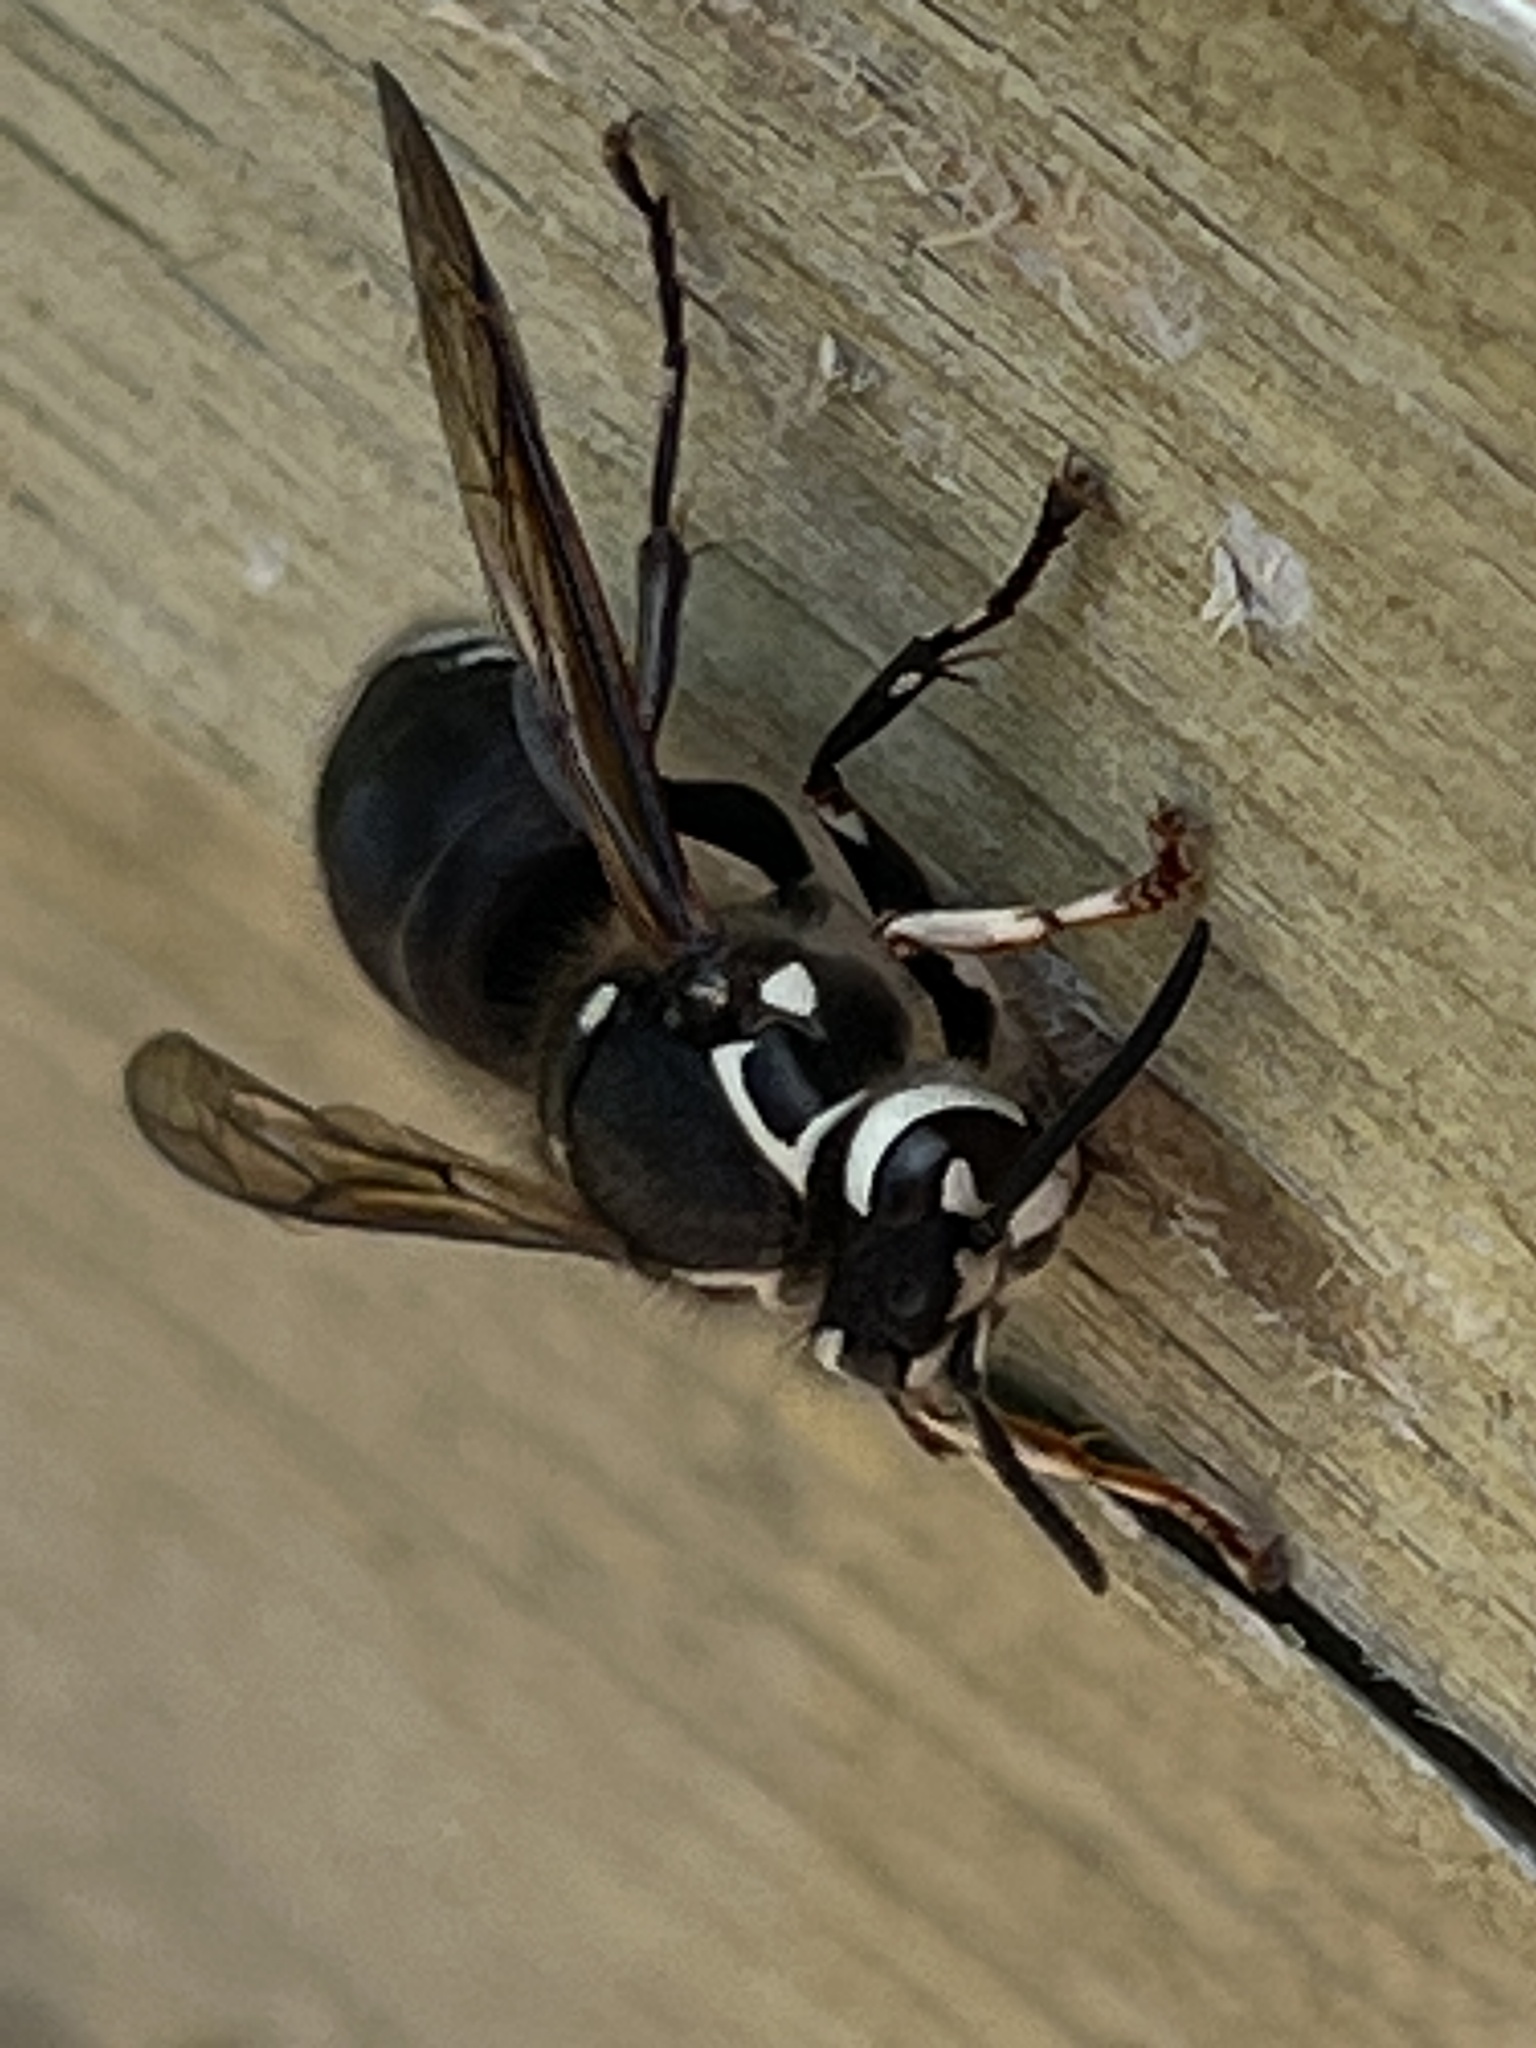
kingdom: Animalia
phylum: Arthropoda
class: Insecta
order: Hymenoptera
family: Vespidae
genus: Dolichovespula
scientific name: Dolichovespula maculata
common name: Bald-faced hornet
